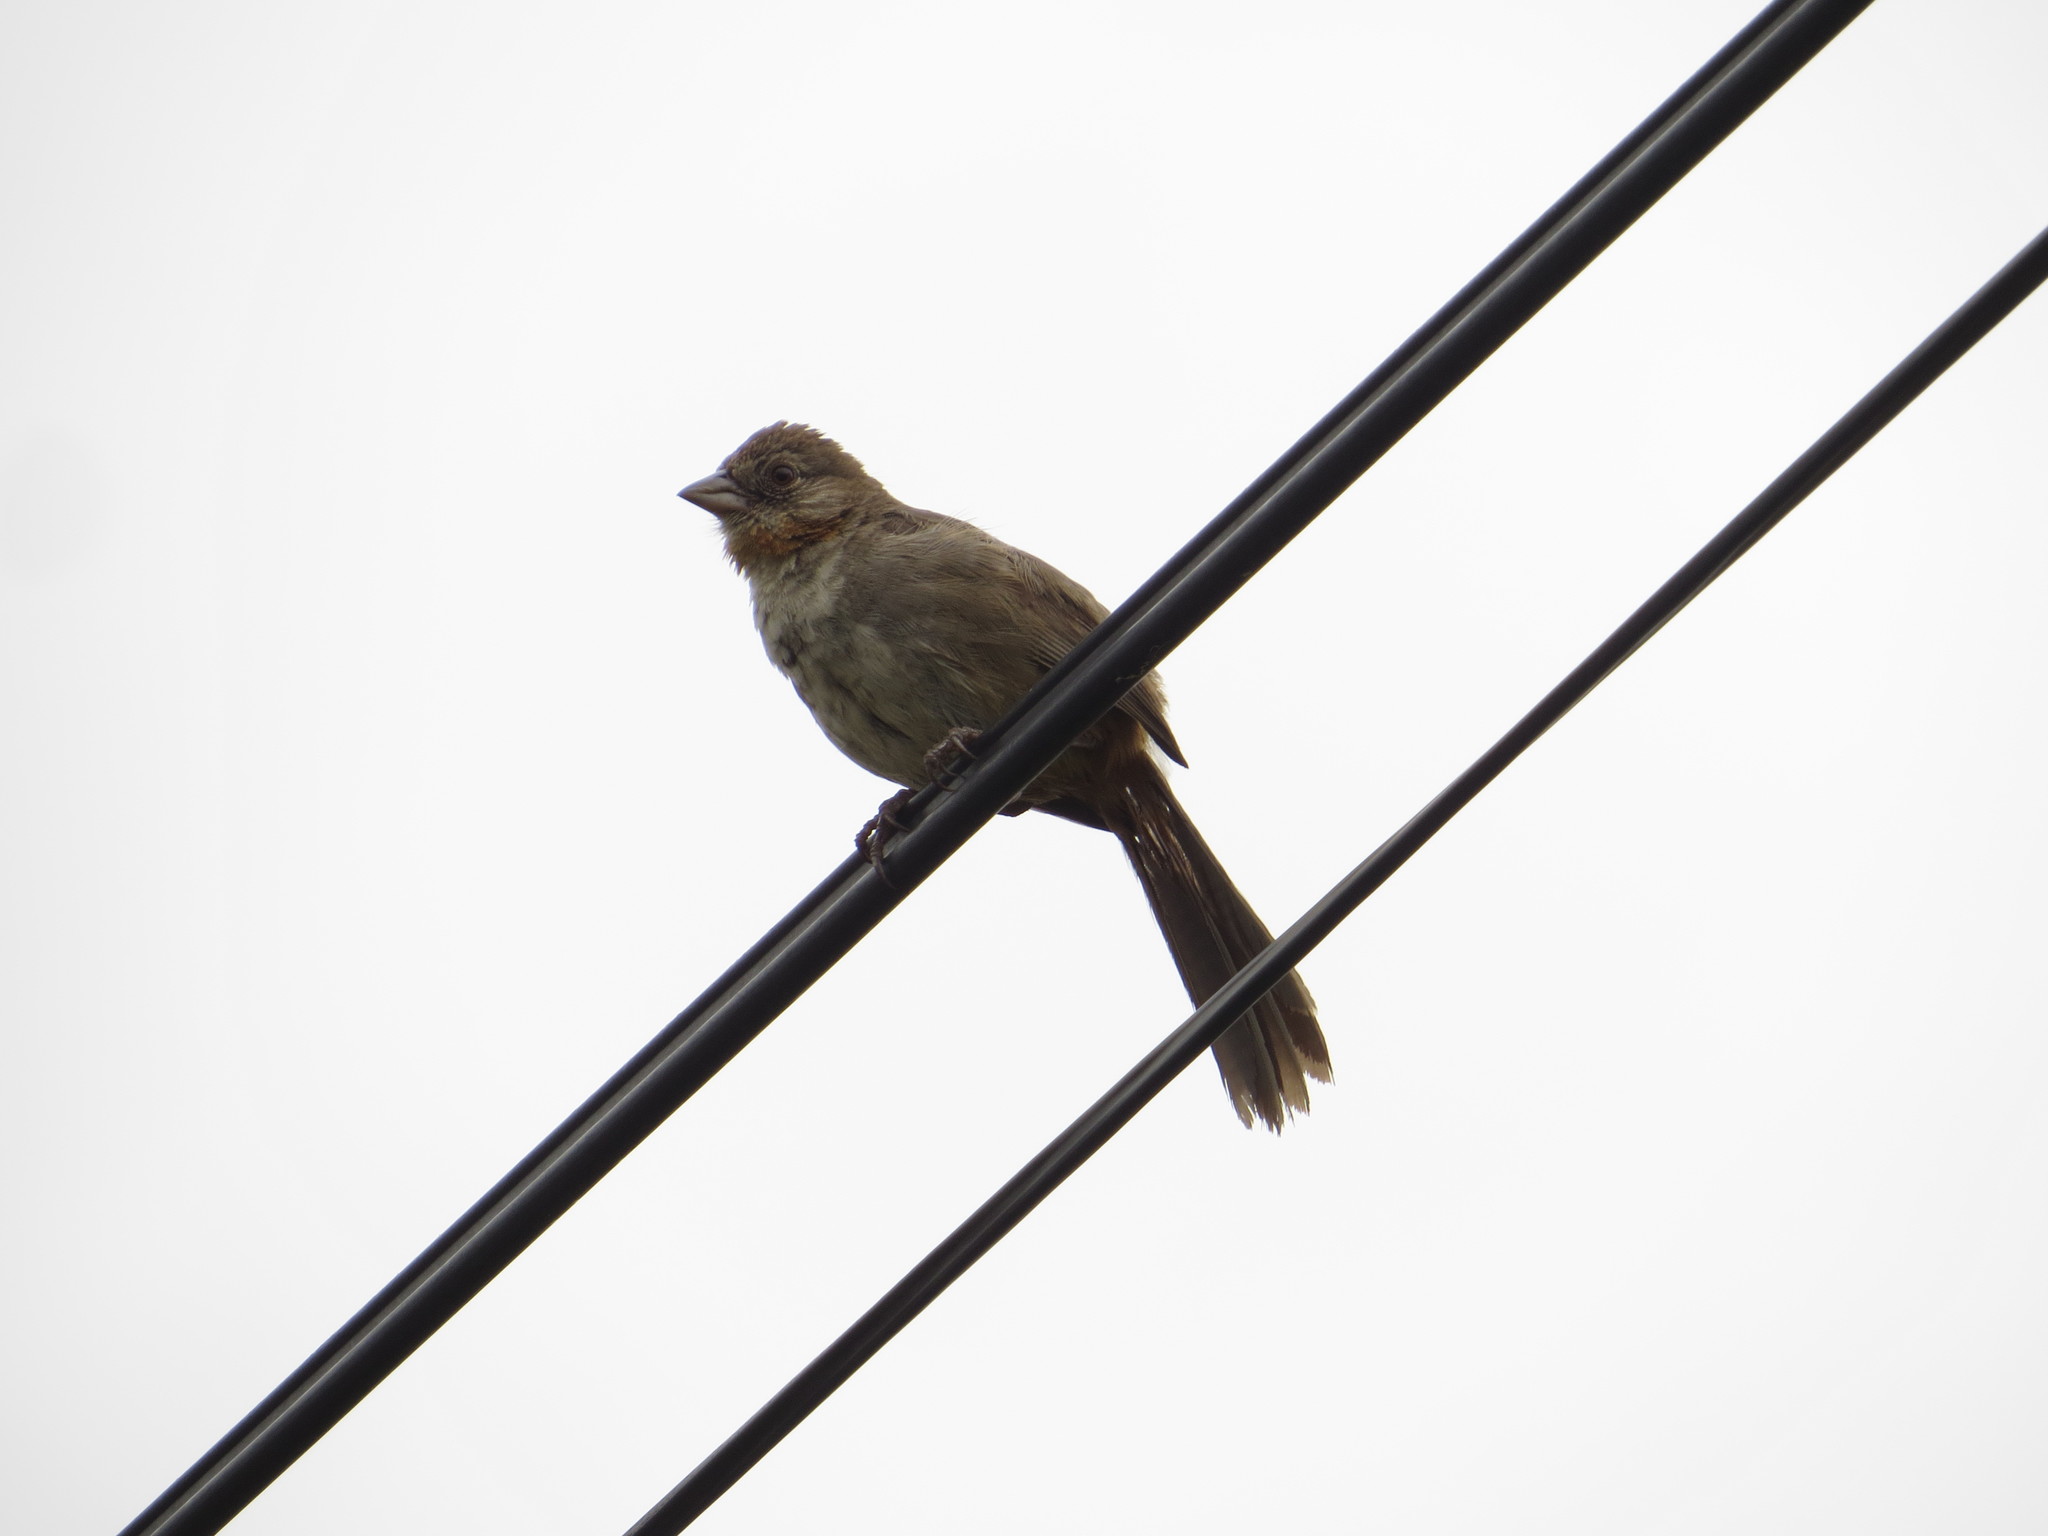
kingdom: Animalia
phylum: Chordata
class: Aves
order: Passeriformes
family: Passerellidae
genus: Melozone
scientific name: Melozone albicollis
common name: White-throated towhee
